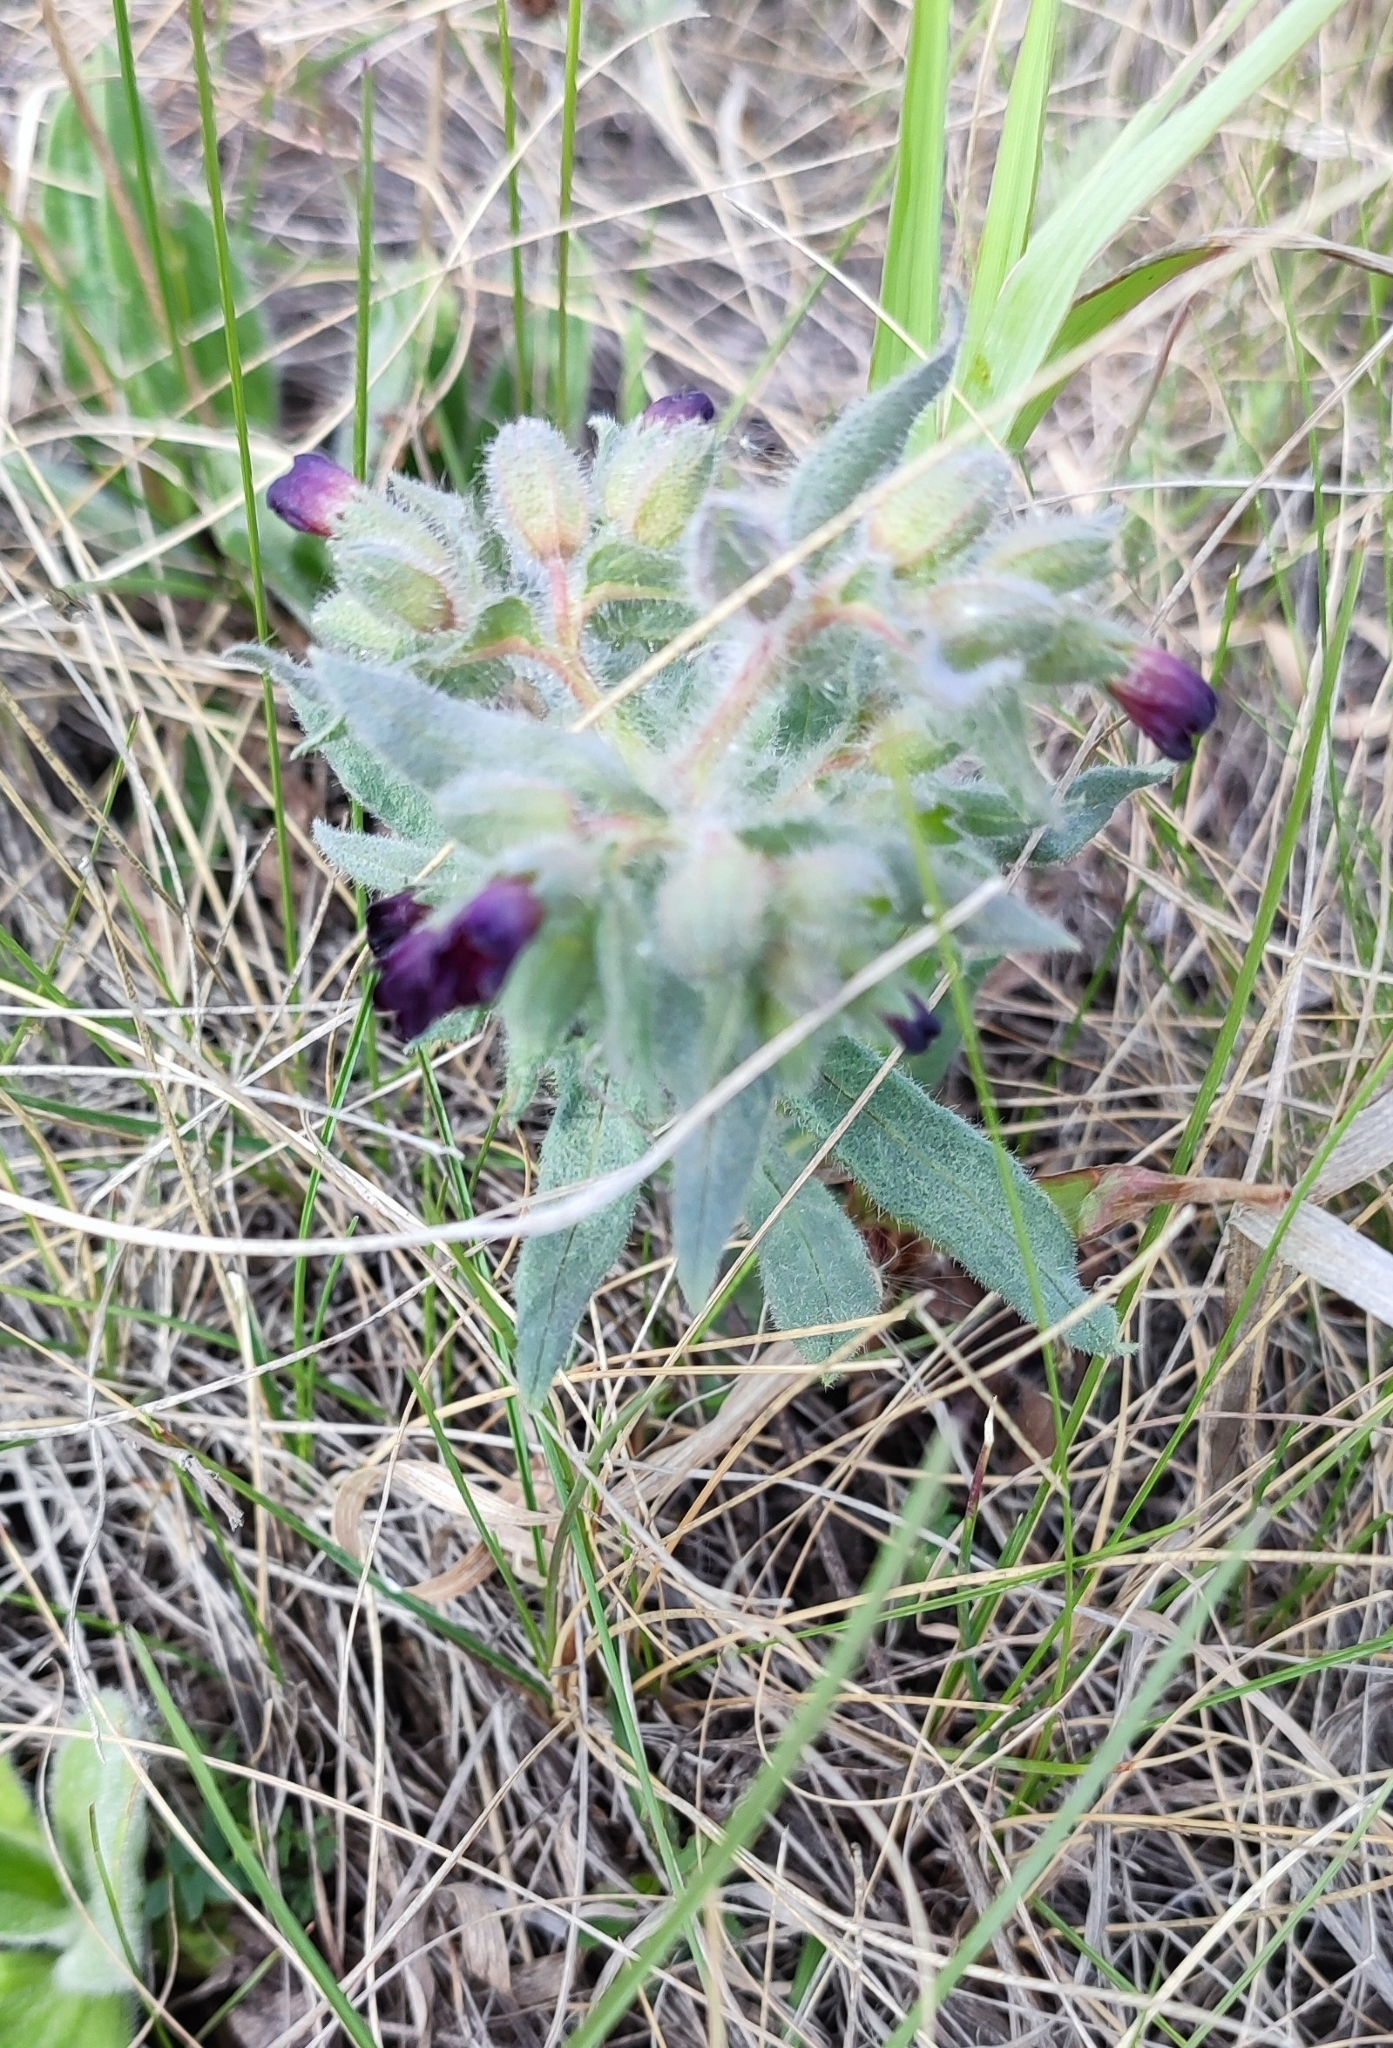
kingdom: Plantae
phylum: Tracheophyta
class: Magnoliopsida
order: Boraginales
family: Boraginaceae
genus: Nonea
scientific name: Nonea pulla
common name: Brown nonea
